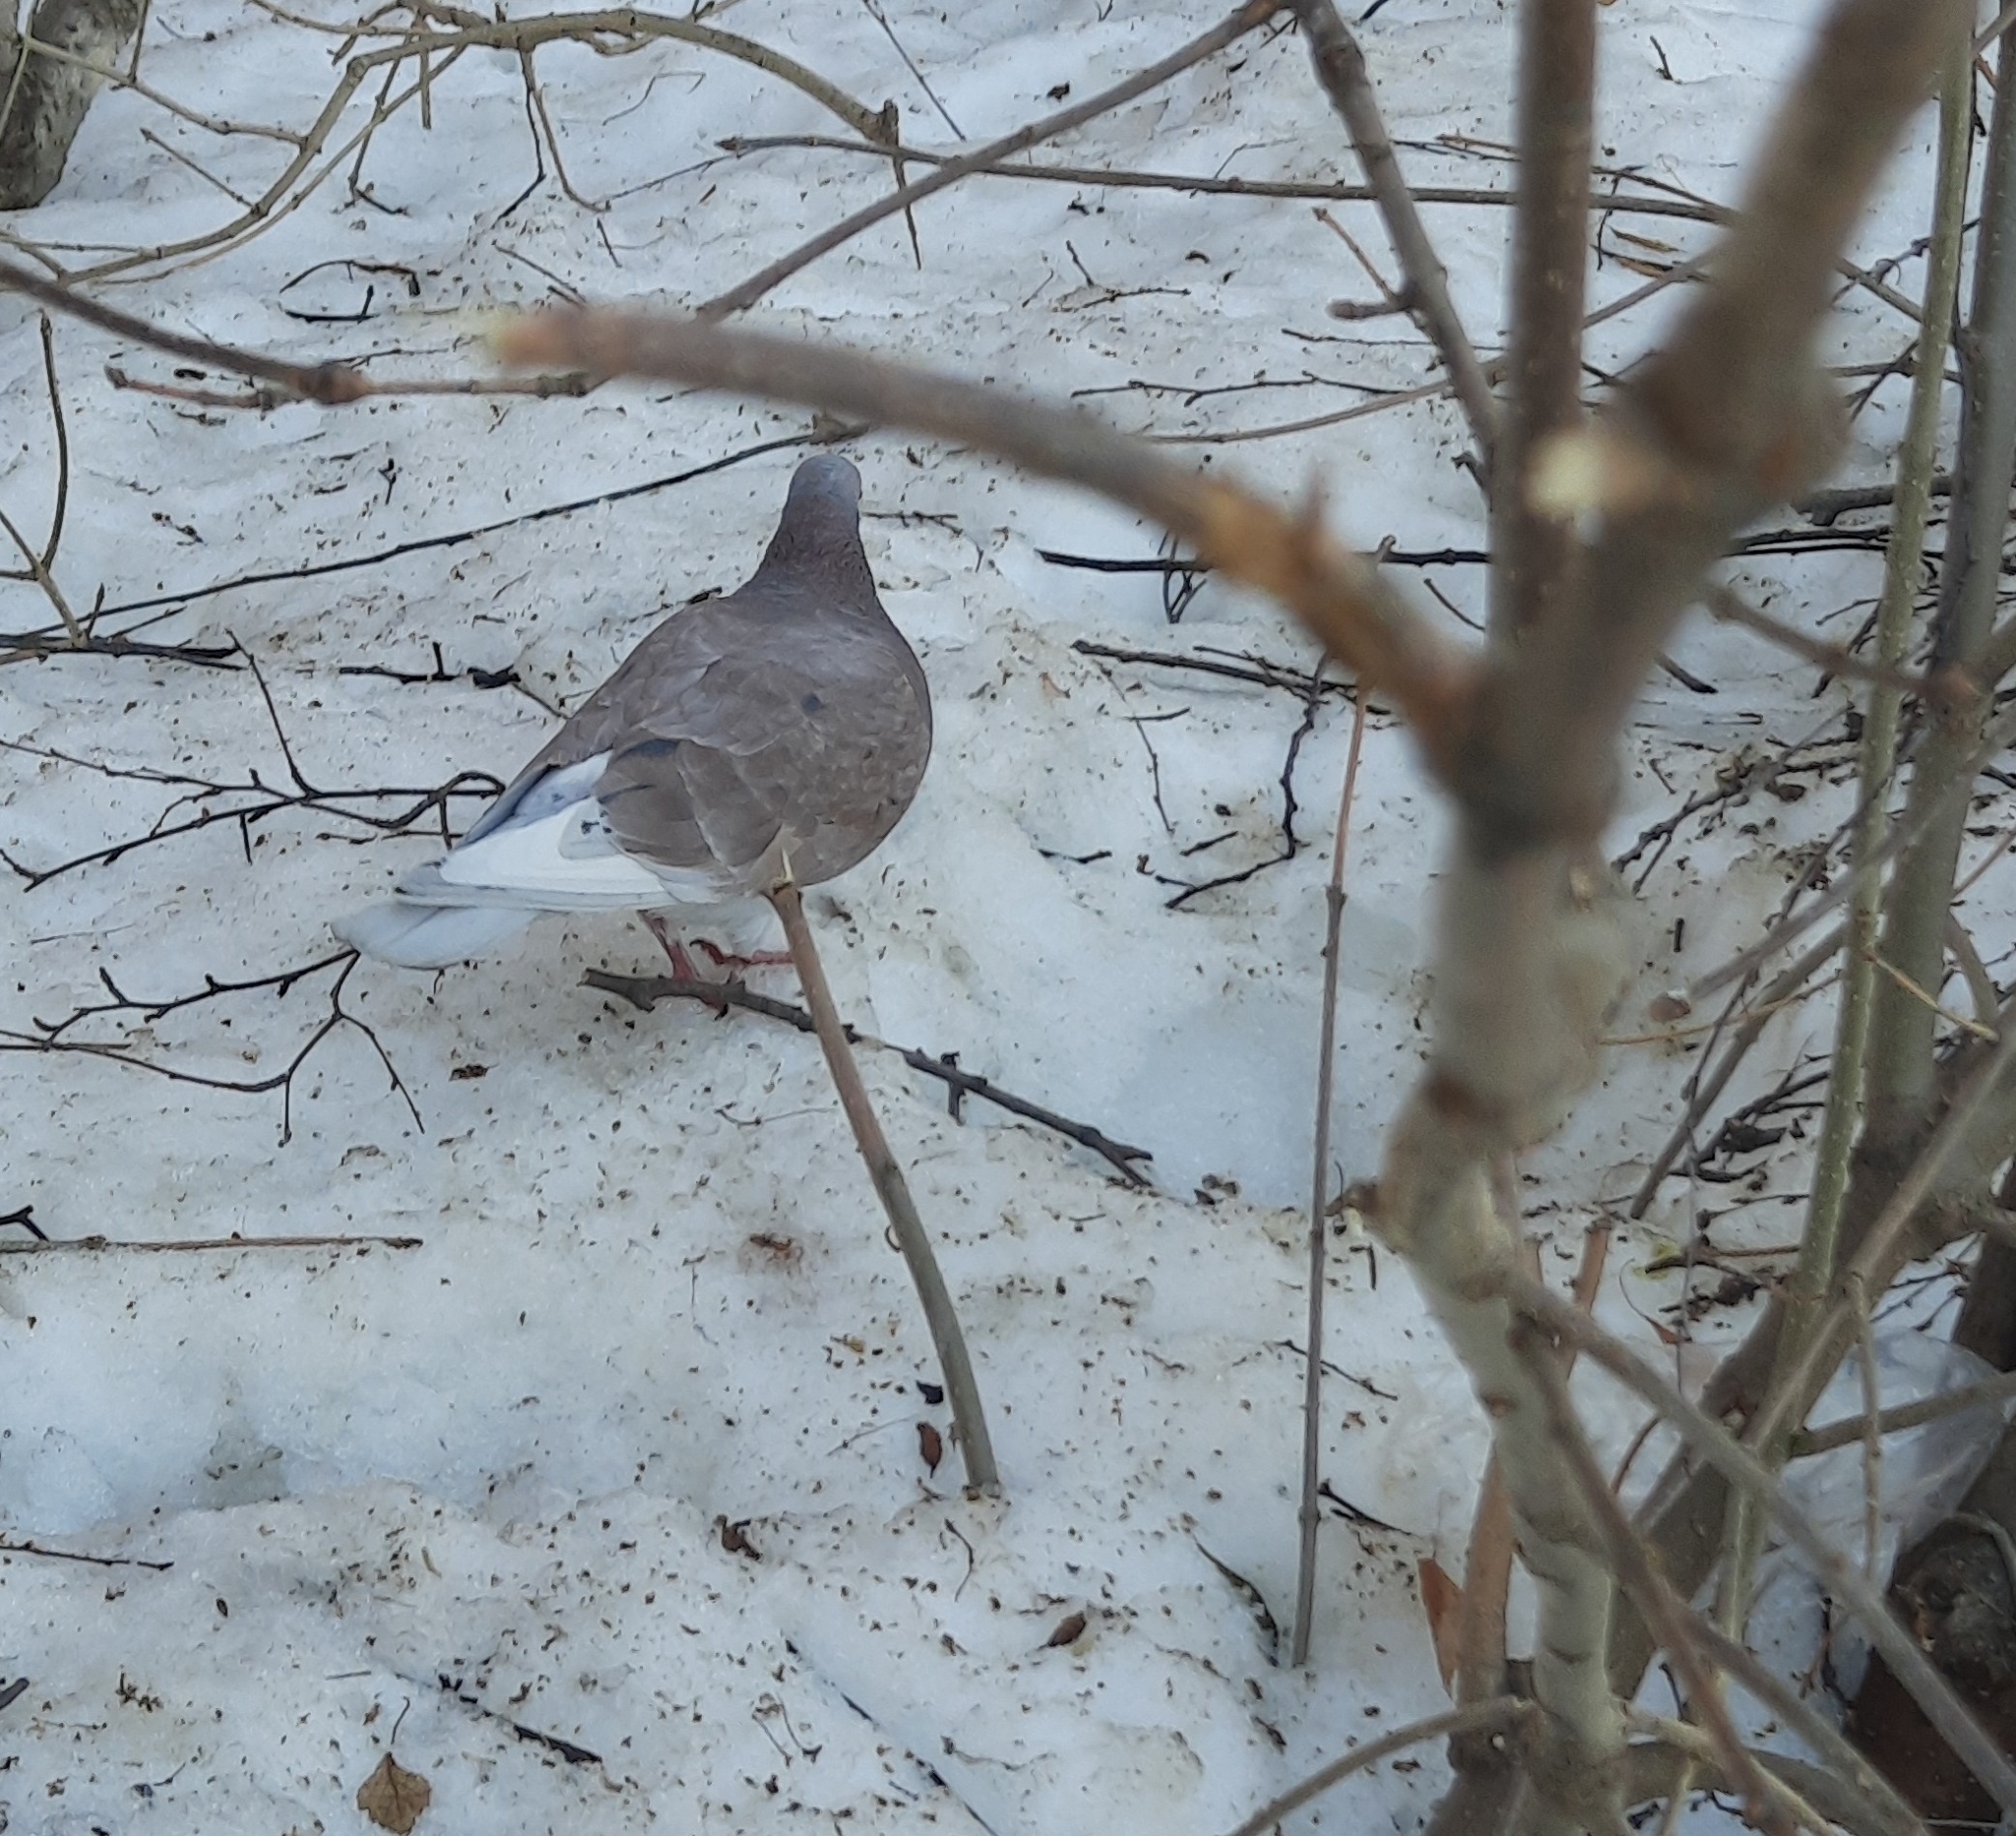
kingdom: Animalia
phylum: Chordata
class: Aves
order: Columbiformes
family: Columbidae
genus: Columba
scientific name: Columba livia
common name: Rock pigeon
